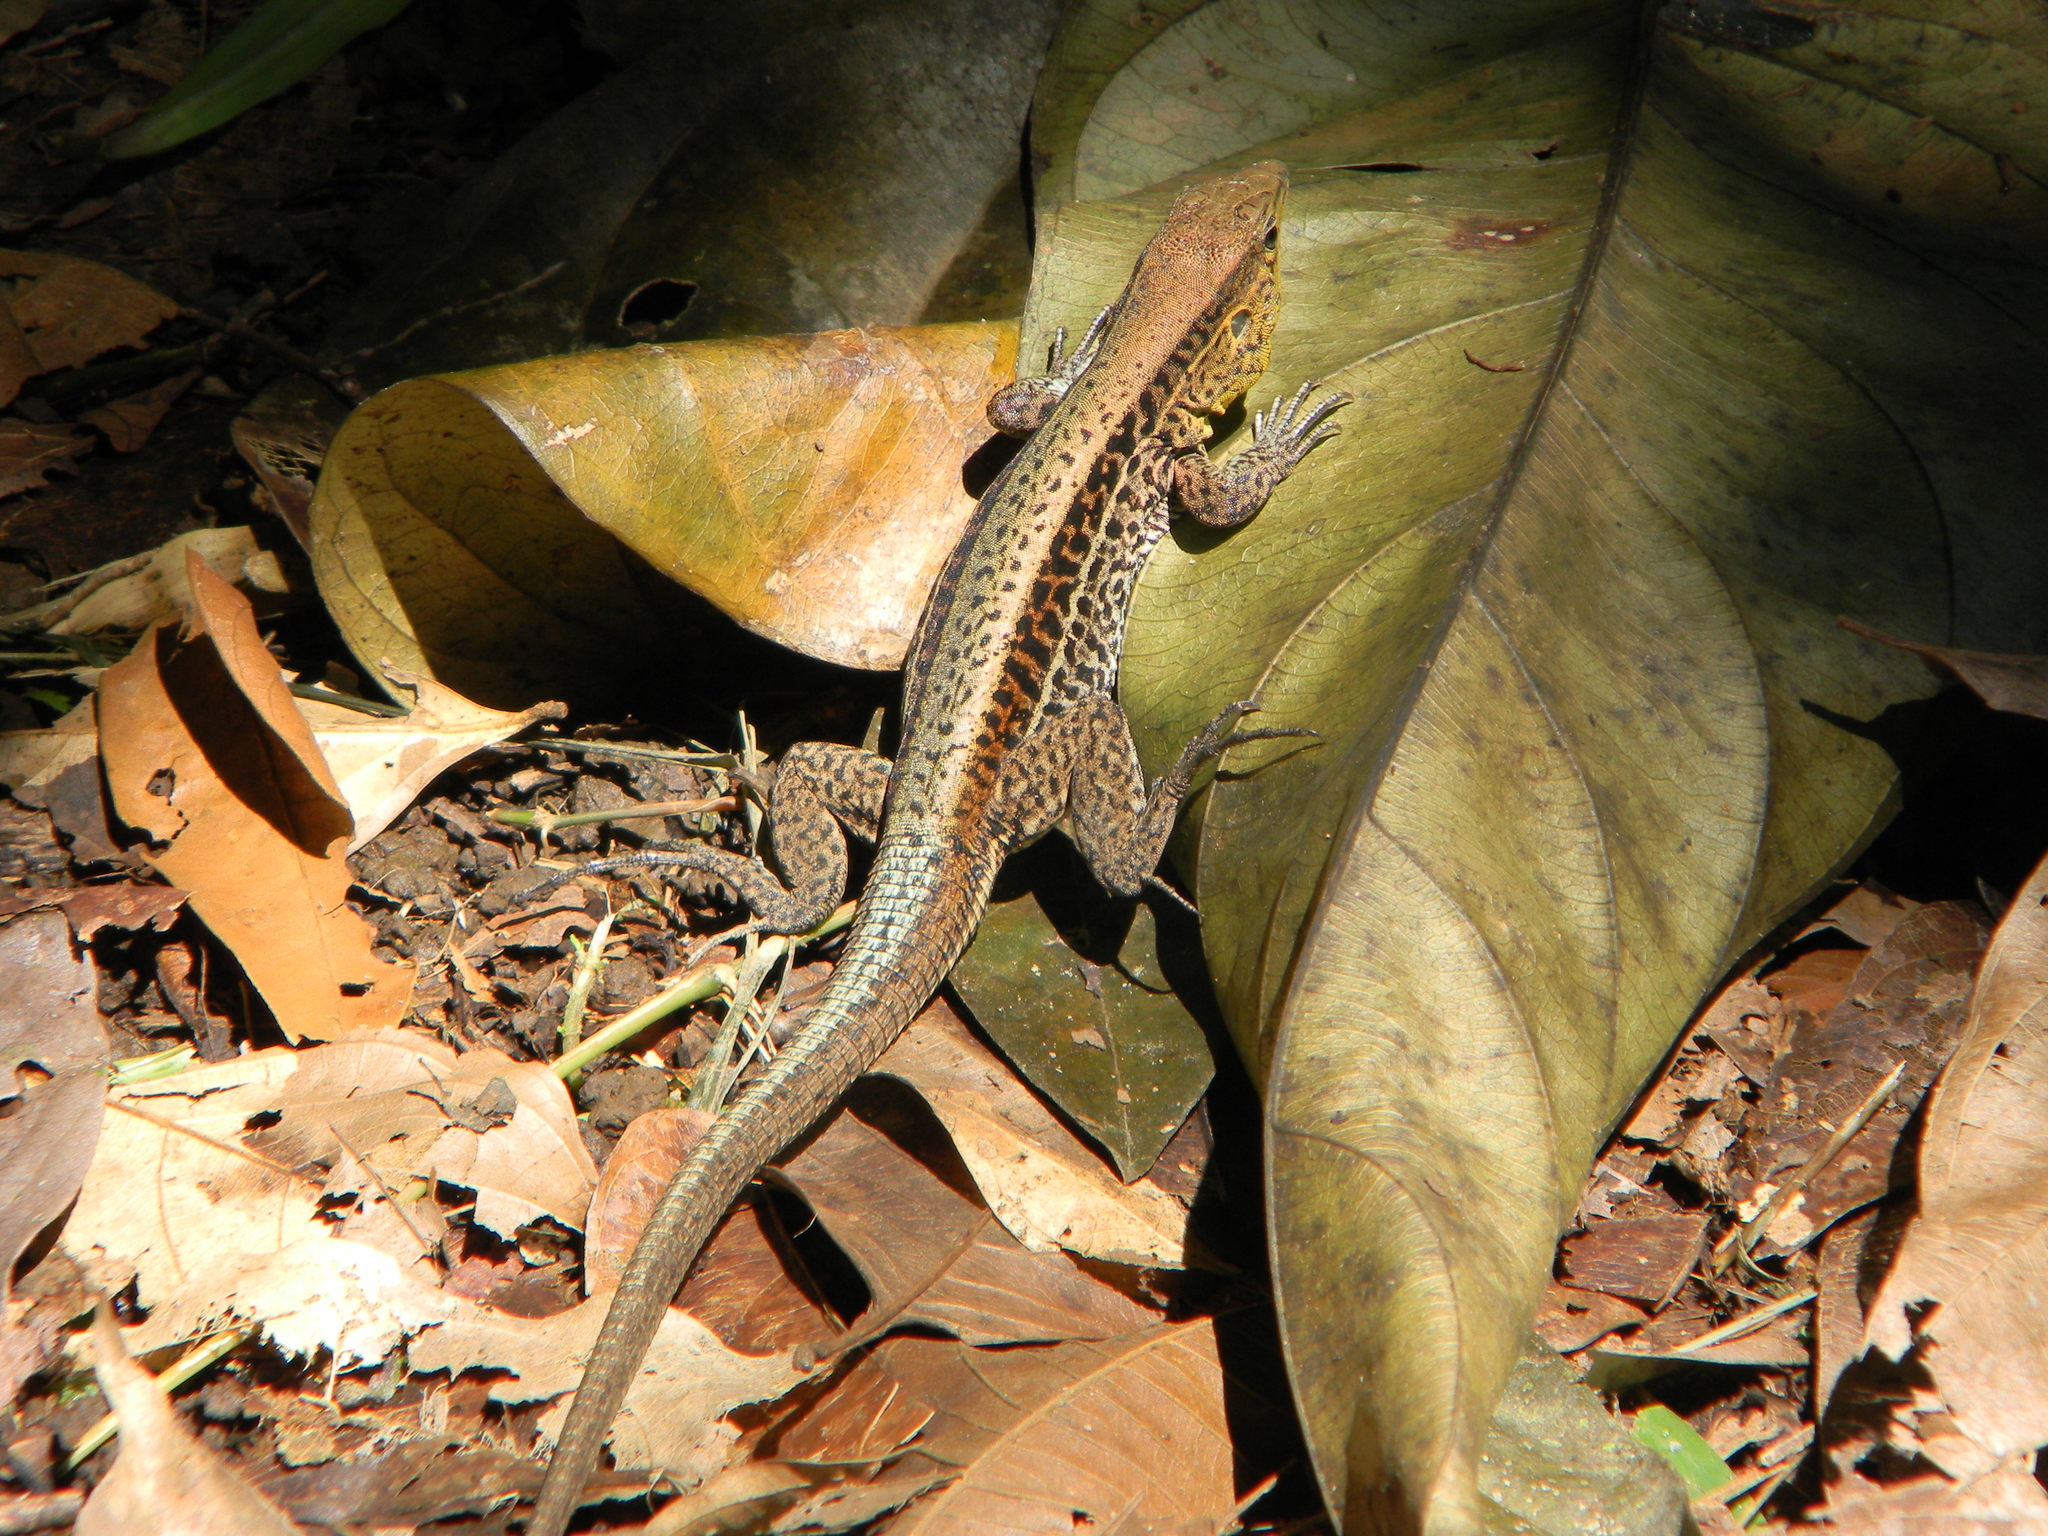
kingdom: Animalia
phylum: Chordata
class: Squamata
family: Teiidae
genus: Holcosus
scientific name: Holcosus quadrilineatus
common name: Four-lined ameiva
